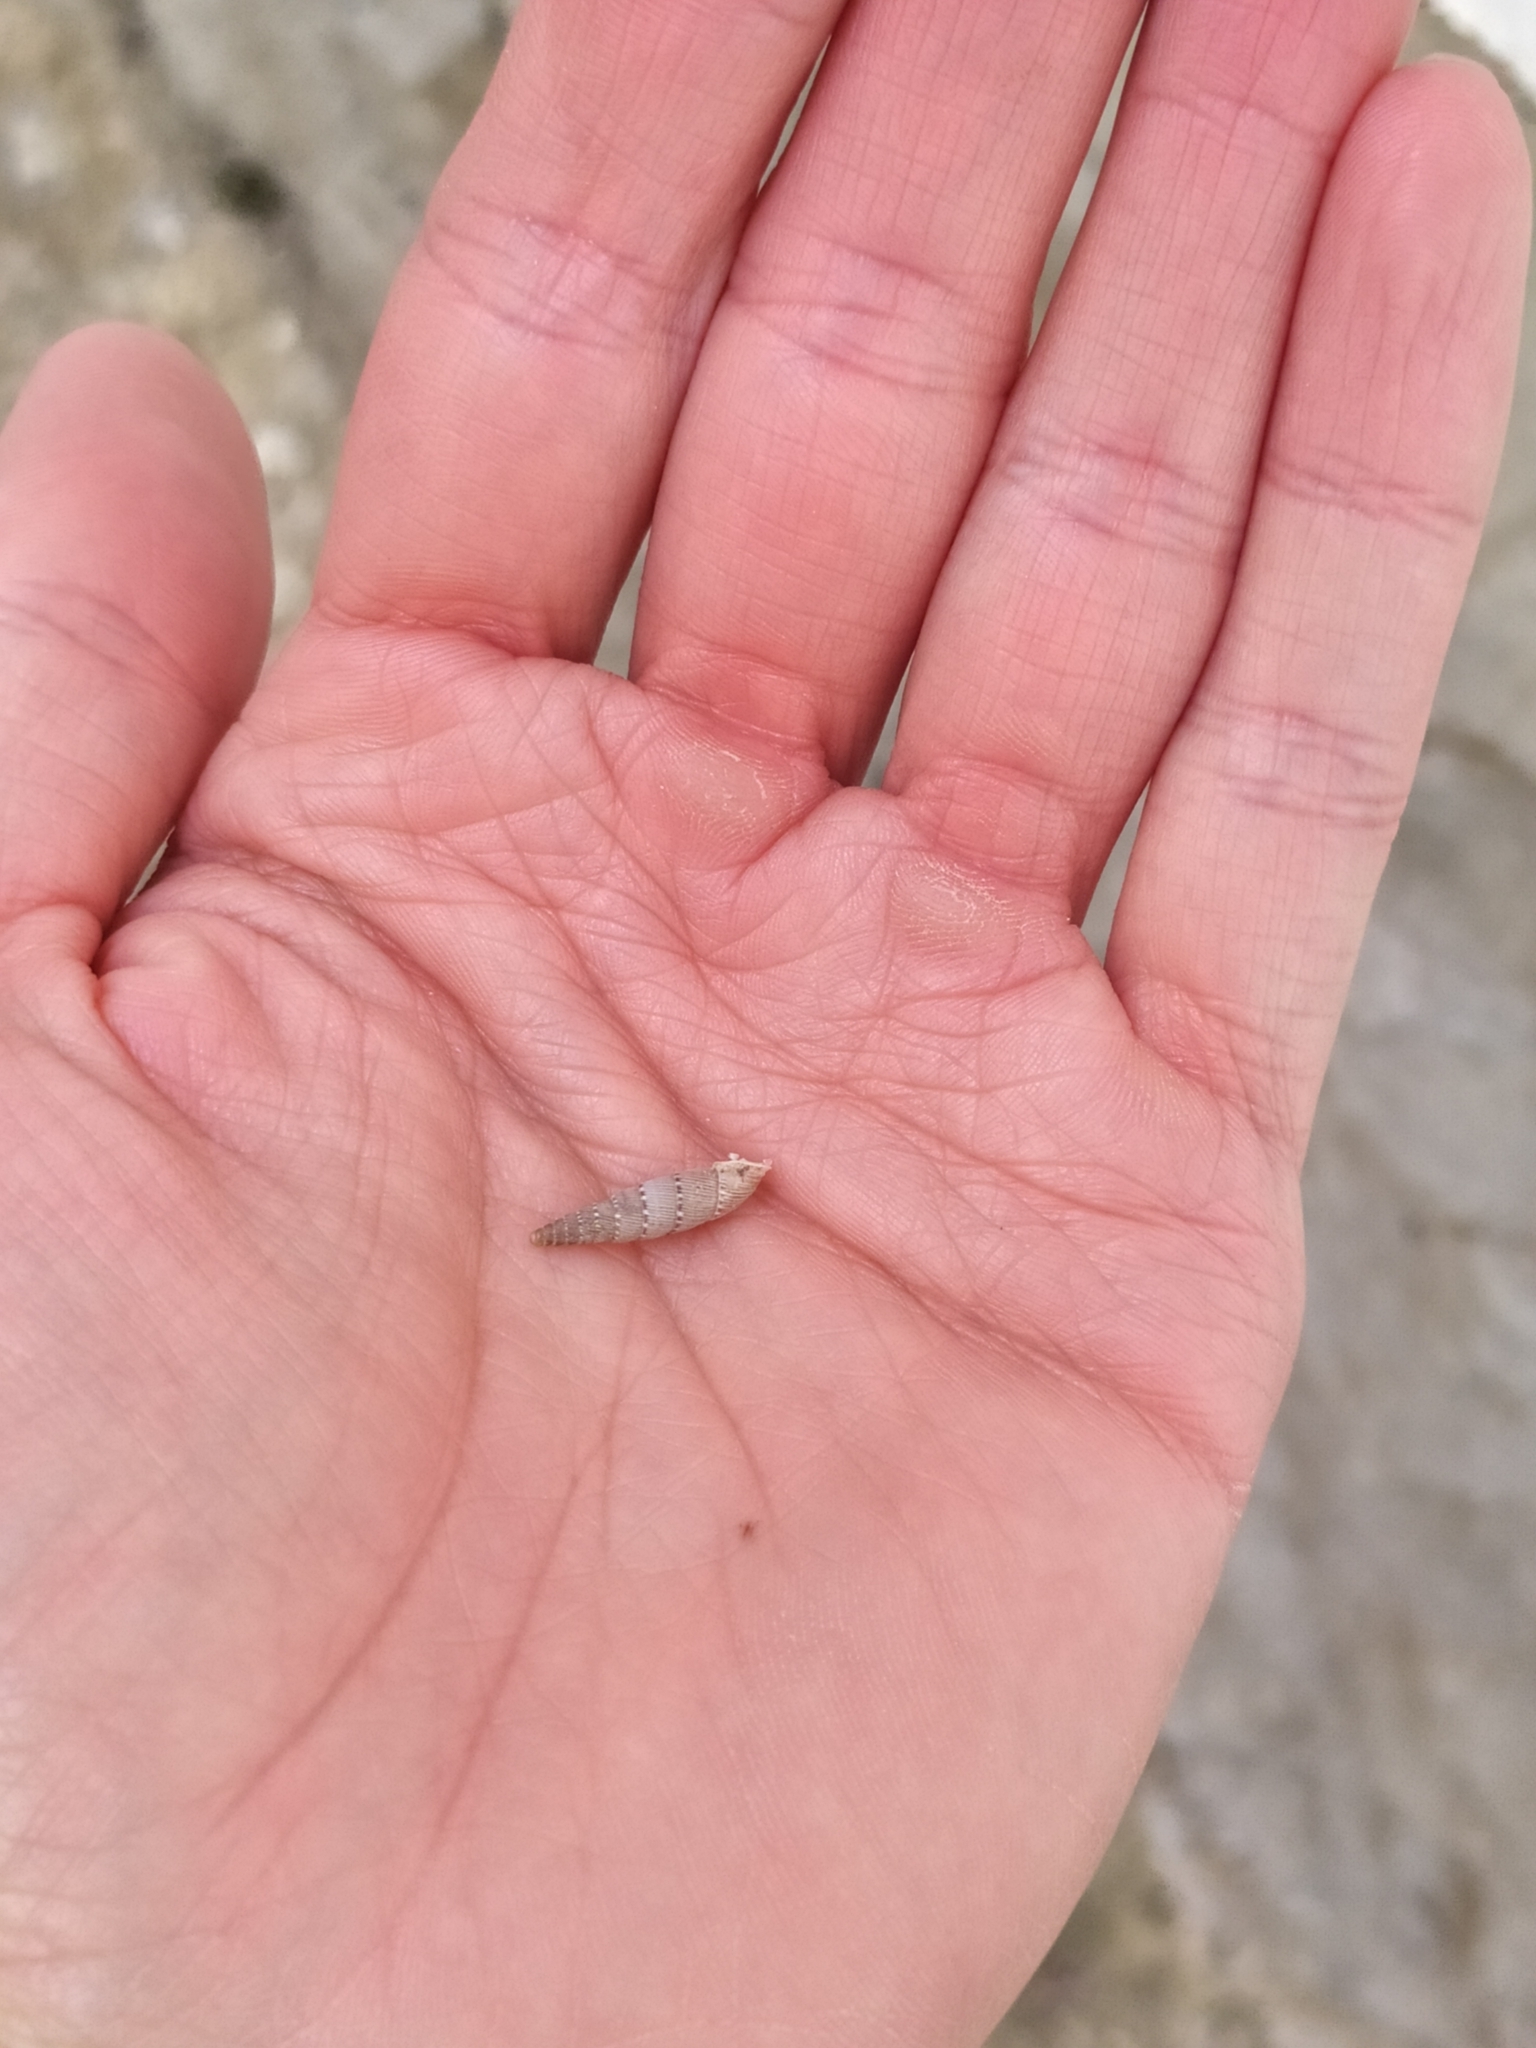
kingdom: Animalia
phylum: Mollusca
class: Gastropoda
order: Stylommatophora
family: Clausiliidae
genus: Papillifera
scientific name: Papillifera papillaris
